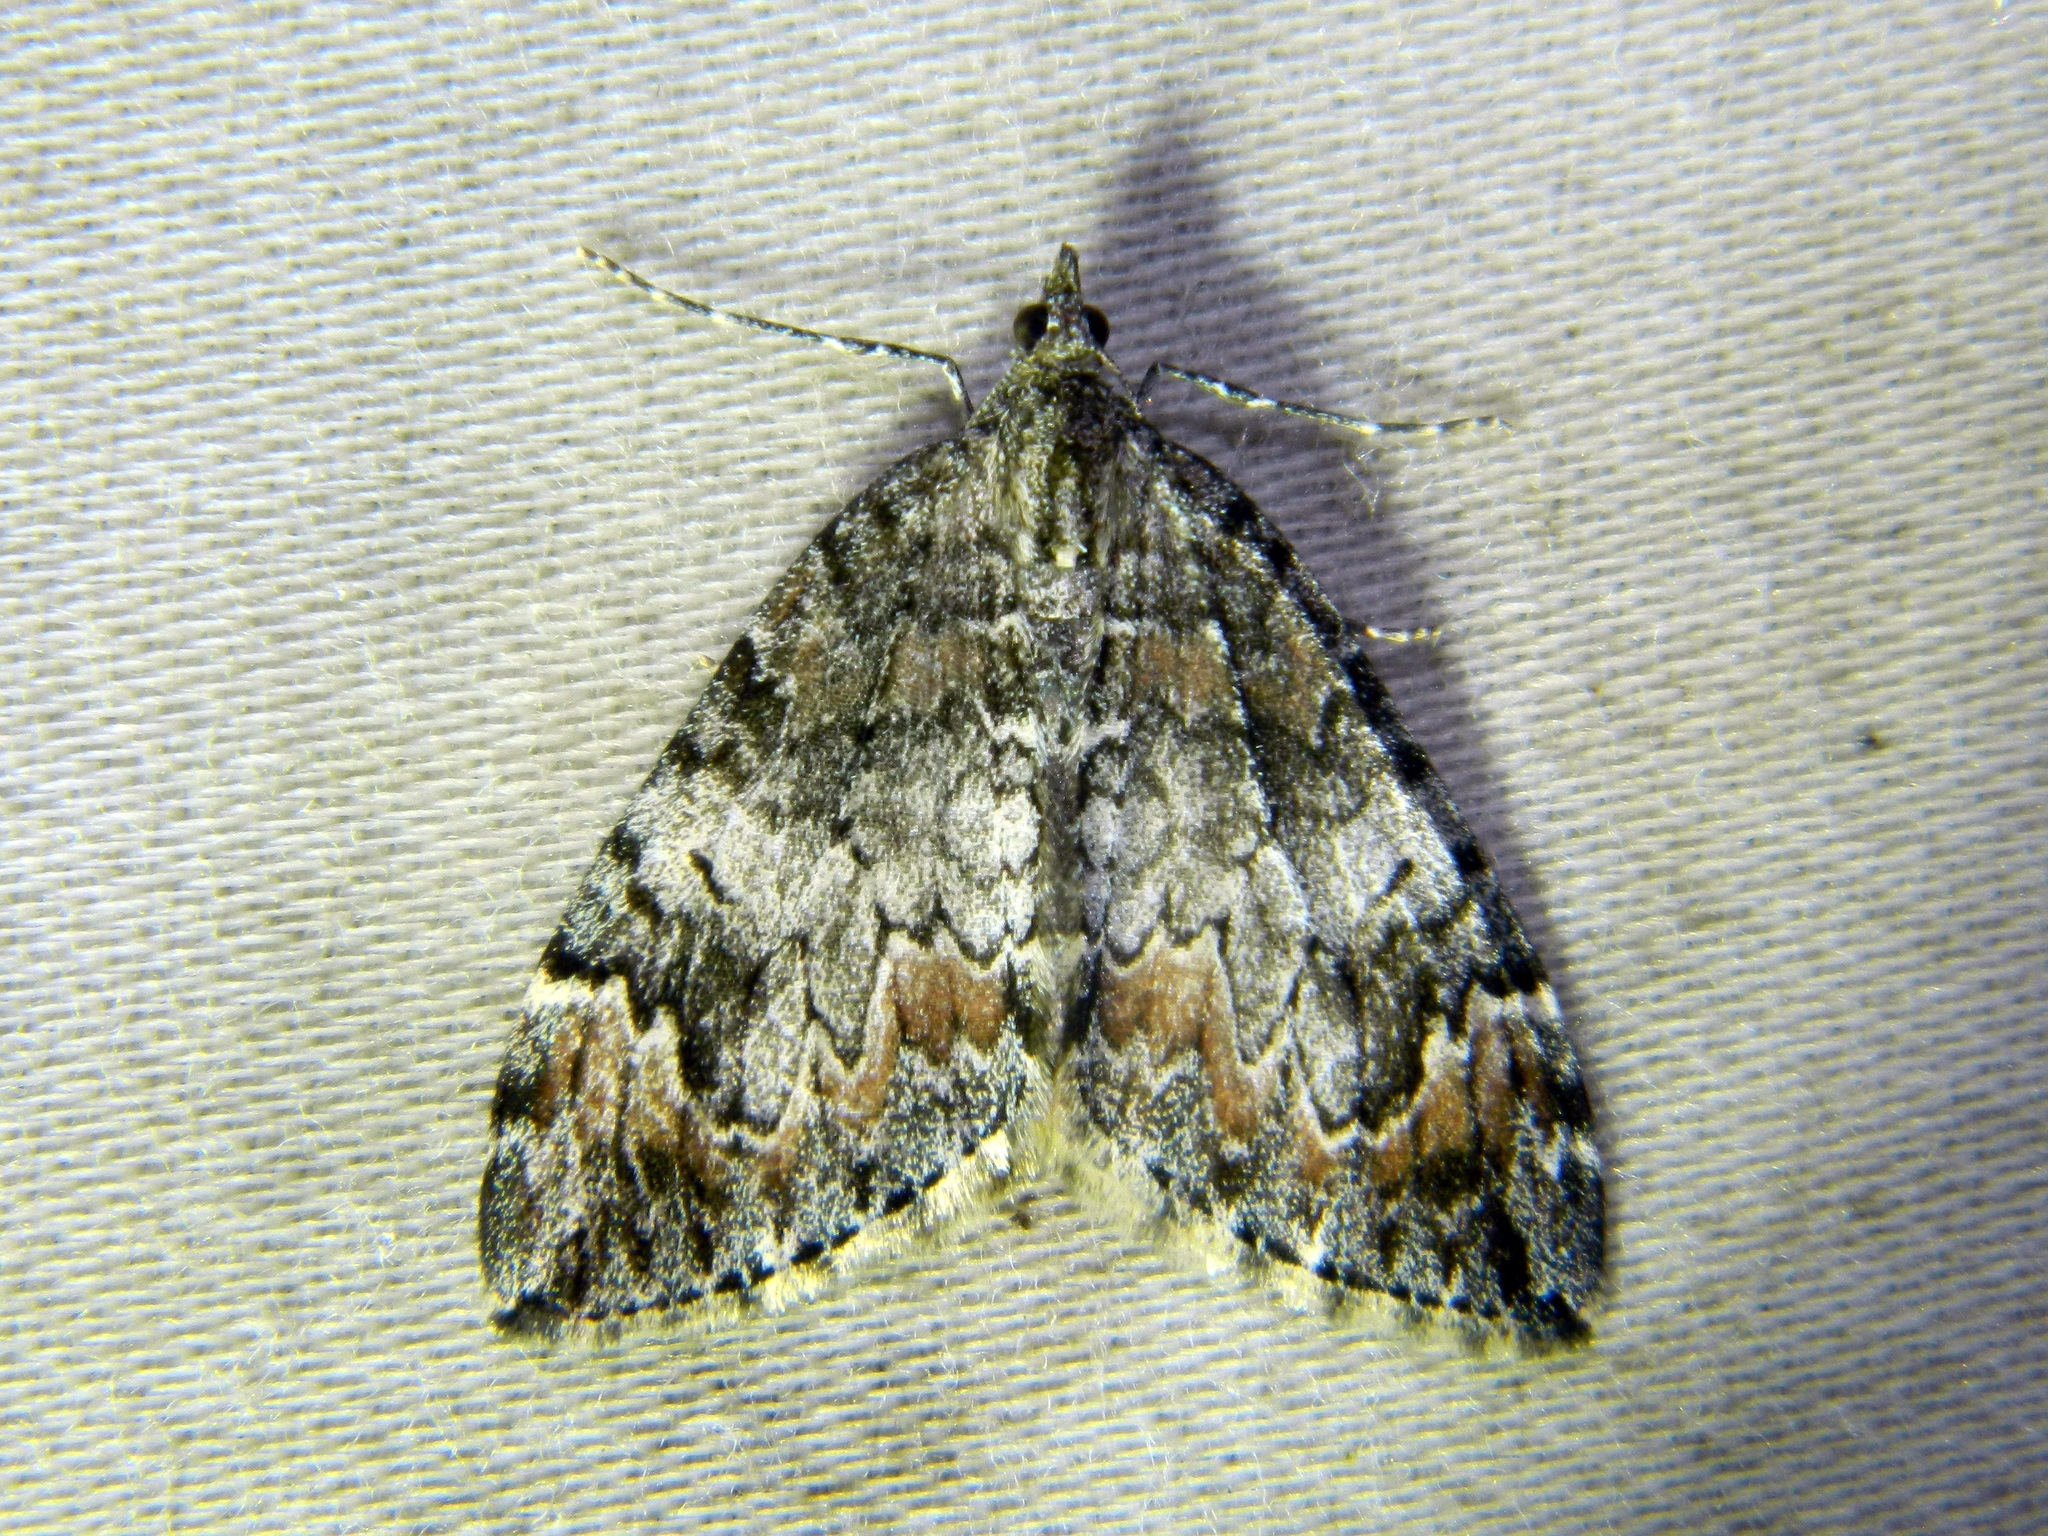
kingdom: Animalia
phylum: Arthropoda
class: Insecta
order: Lepidoptera
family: Geometridae
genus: Dysstroma
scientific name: Dysstroma citrata
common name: Dark marbled carpet
